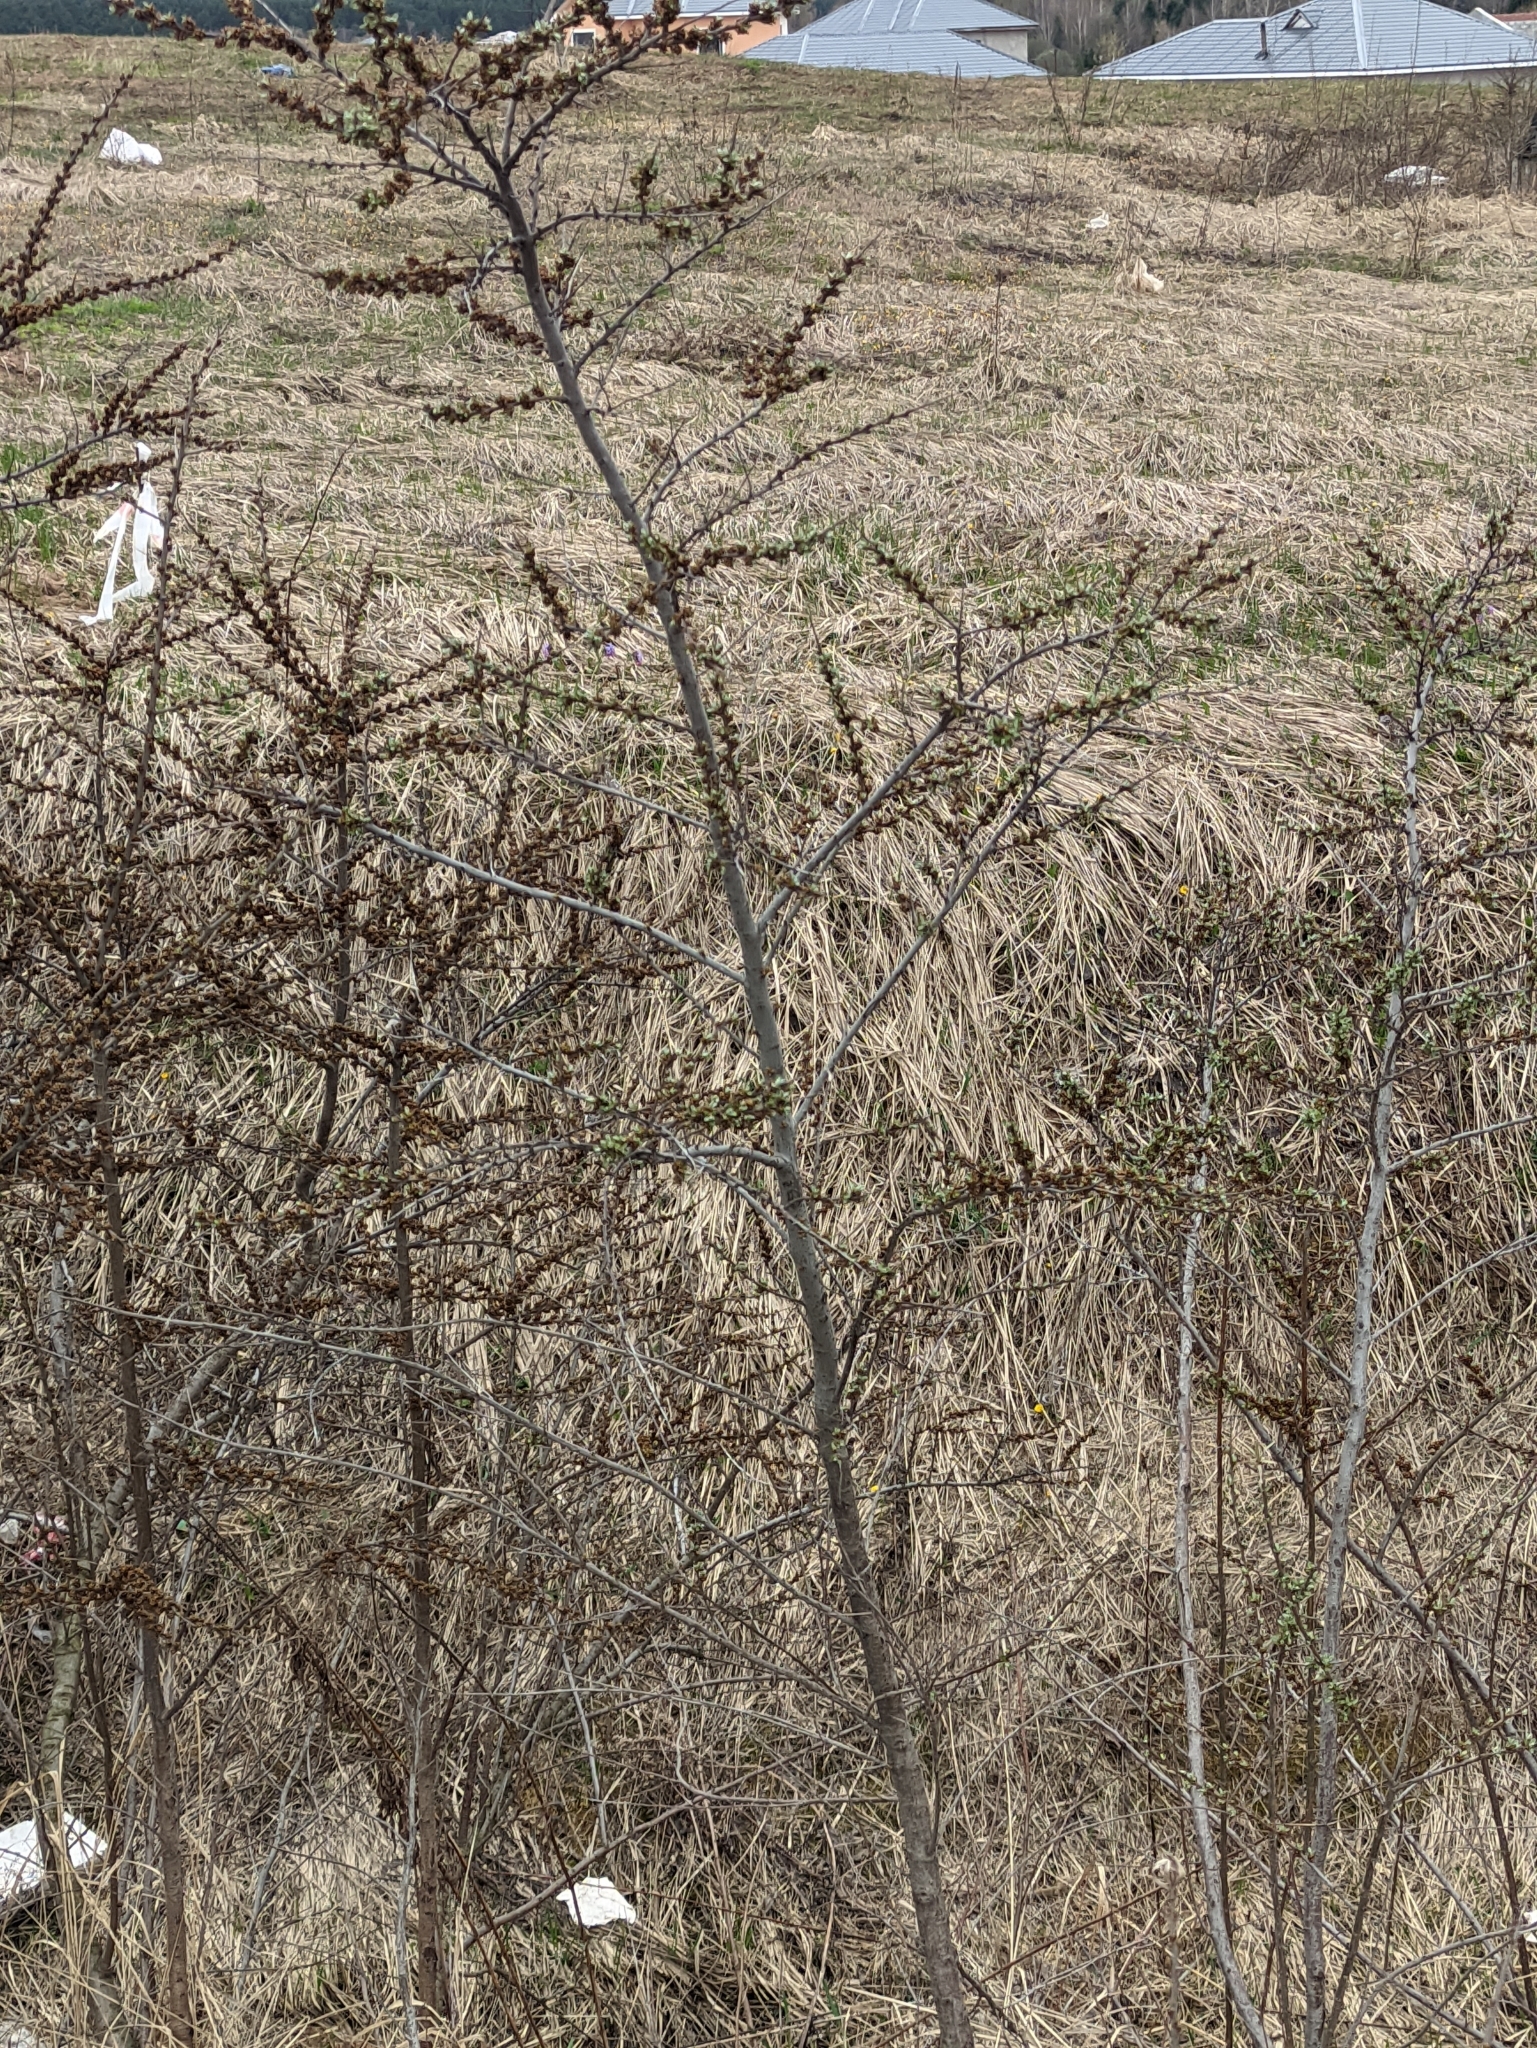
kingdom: Plantae
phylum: Tracheophyta
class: Magnoliopsida
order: Rosales
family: Elaeagnaceae
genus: Hippophae
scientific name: Hippophae rhamnoides
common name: Sea-buckthorn
